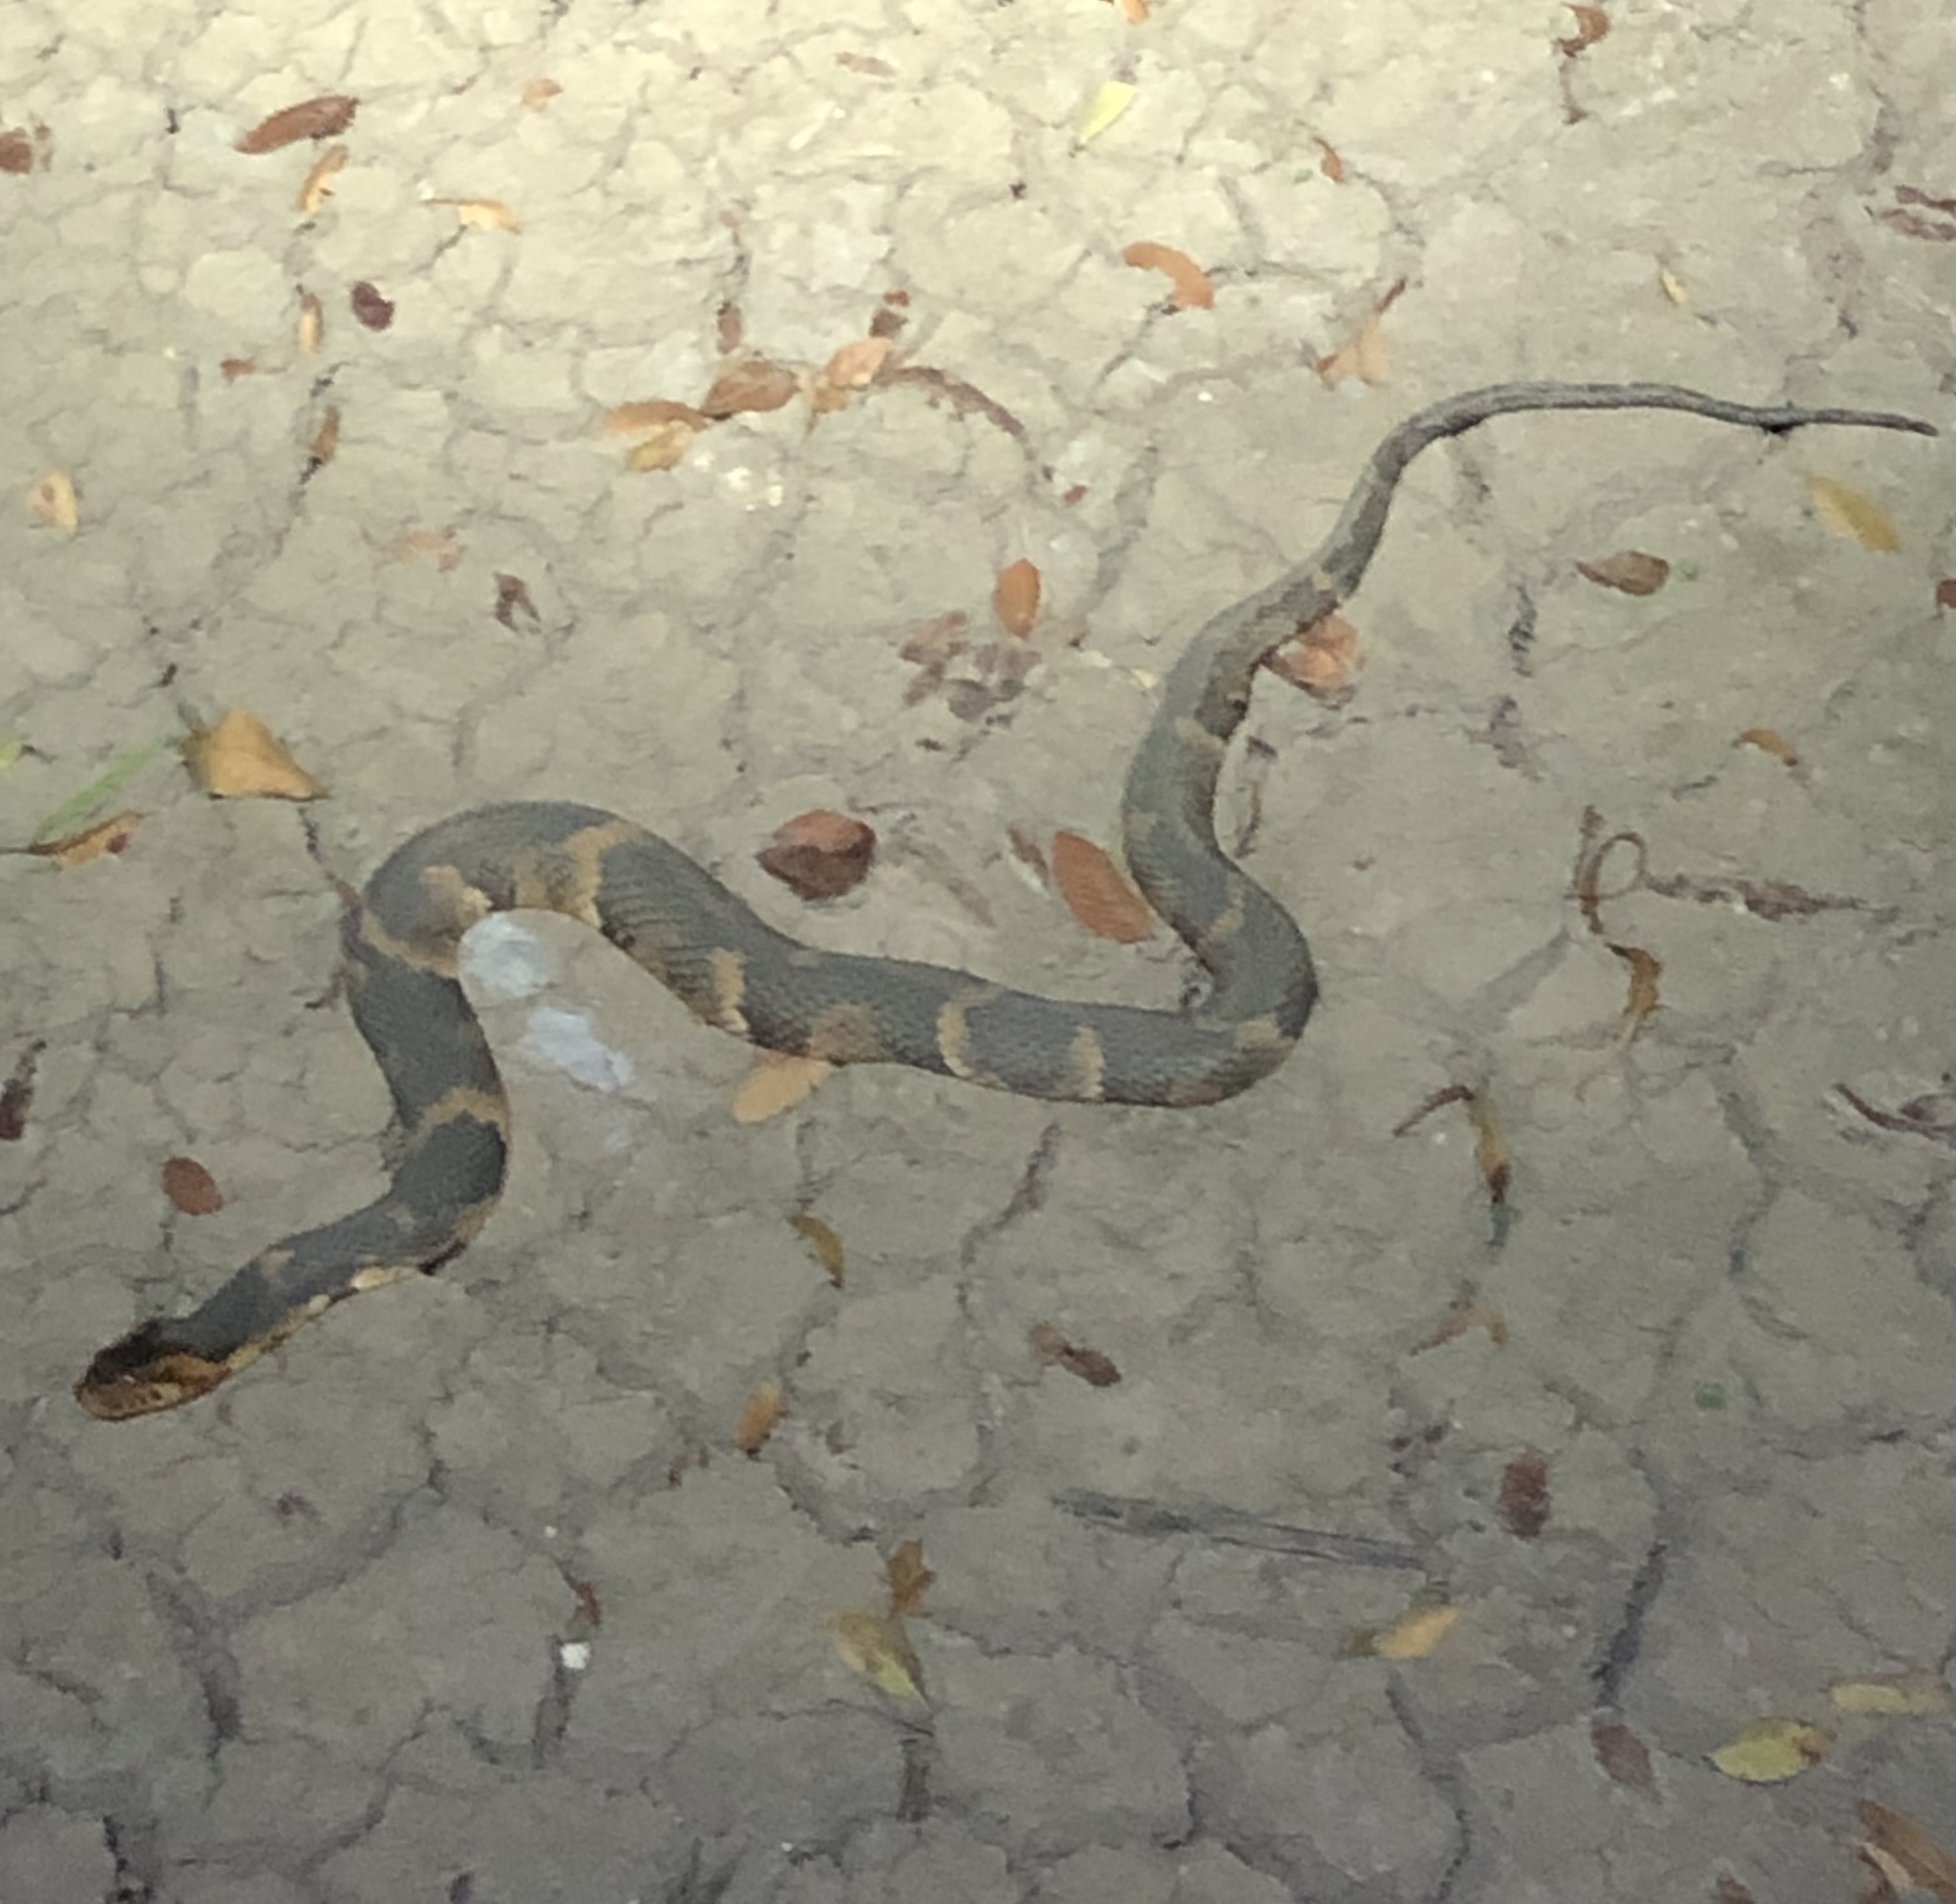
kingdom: Animalia
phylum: Chordata
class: Squamata
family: Colubridae
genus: Nerodia
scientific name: Nerodia fasciata
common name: Southern water snake
